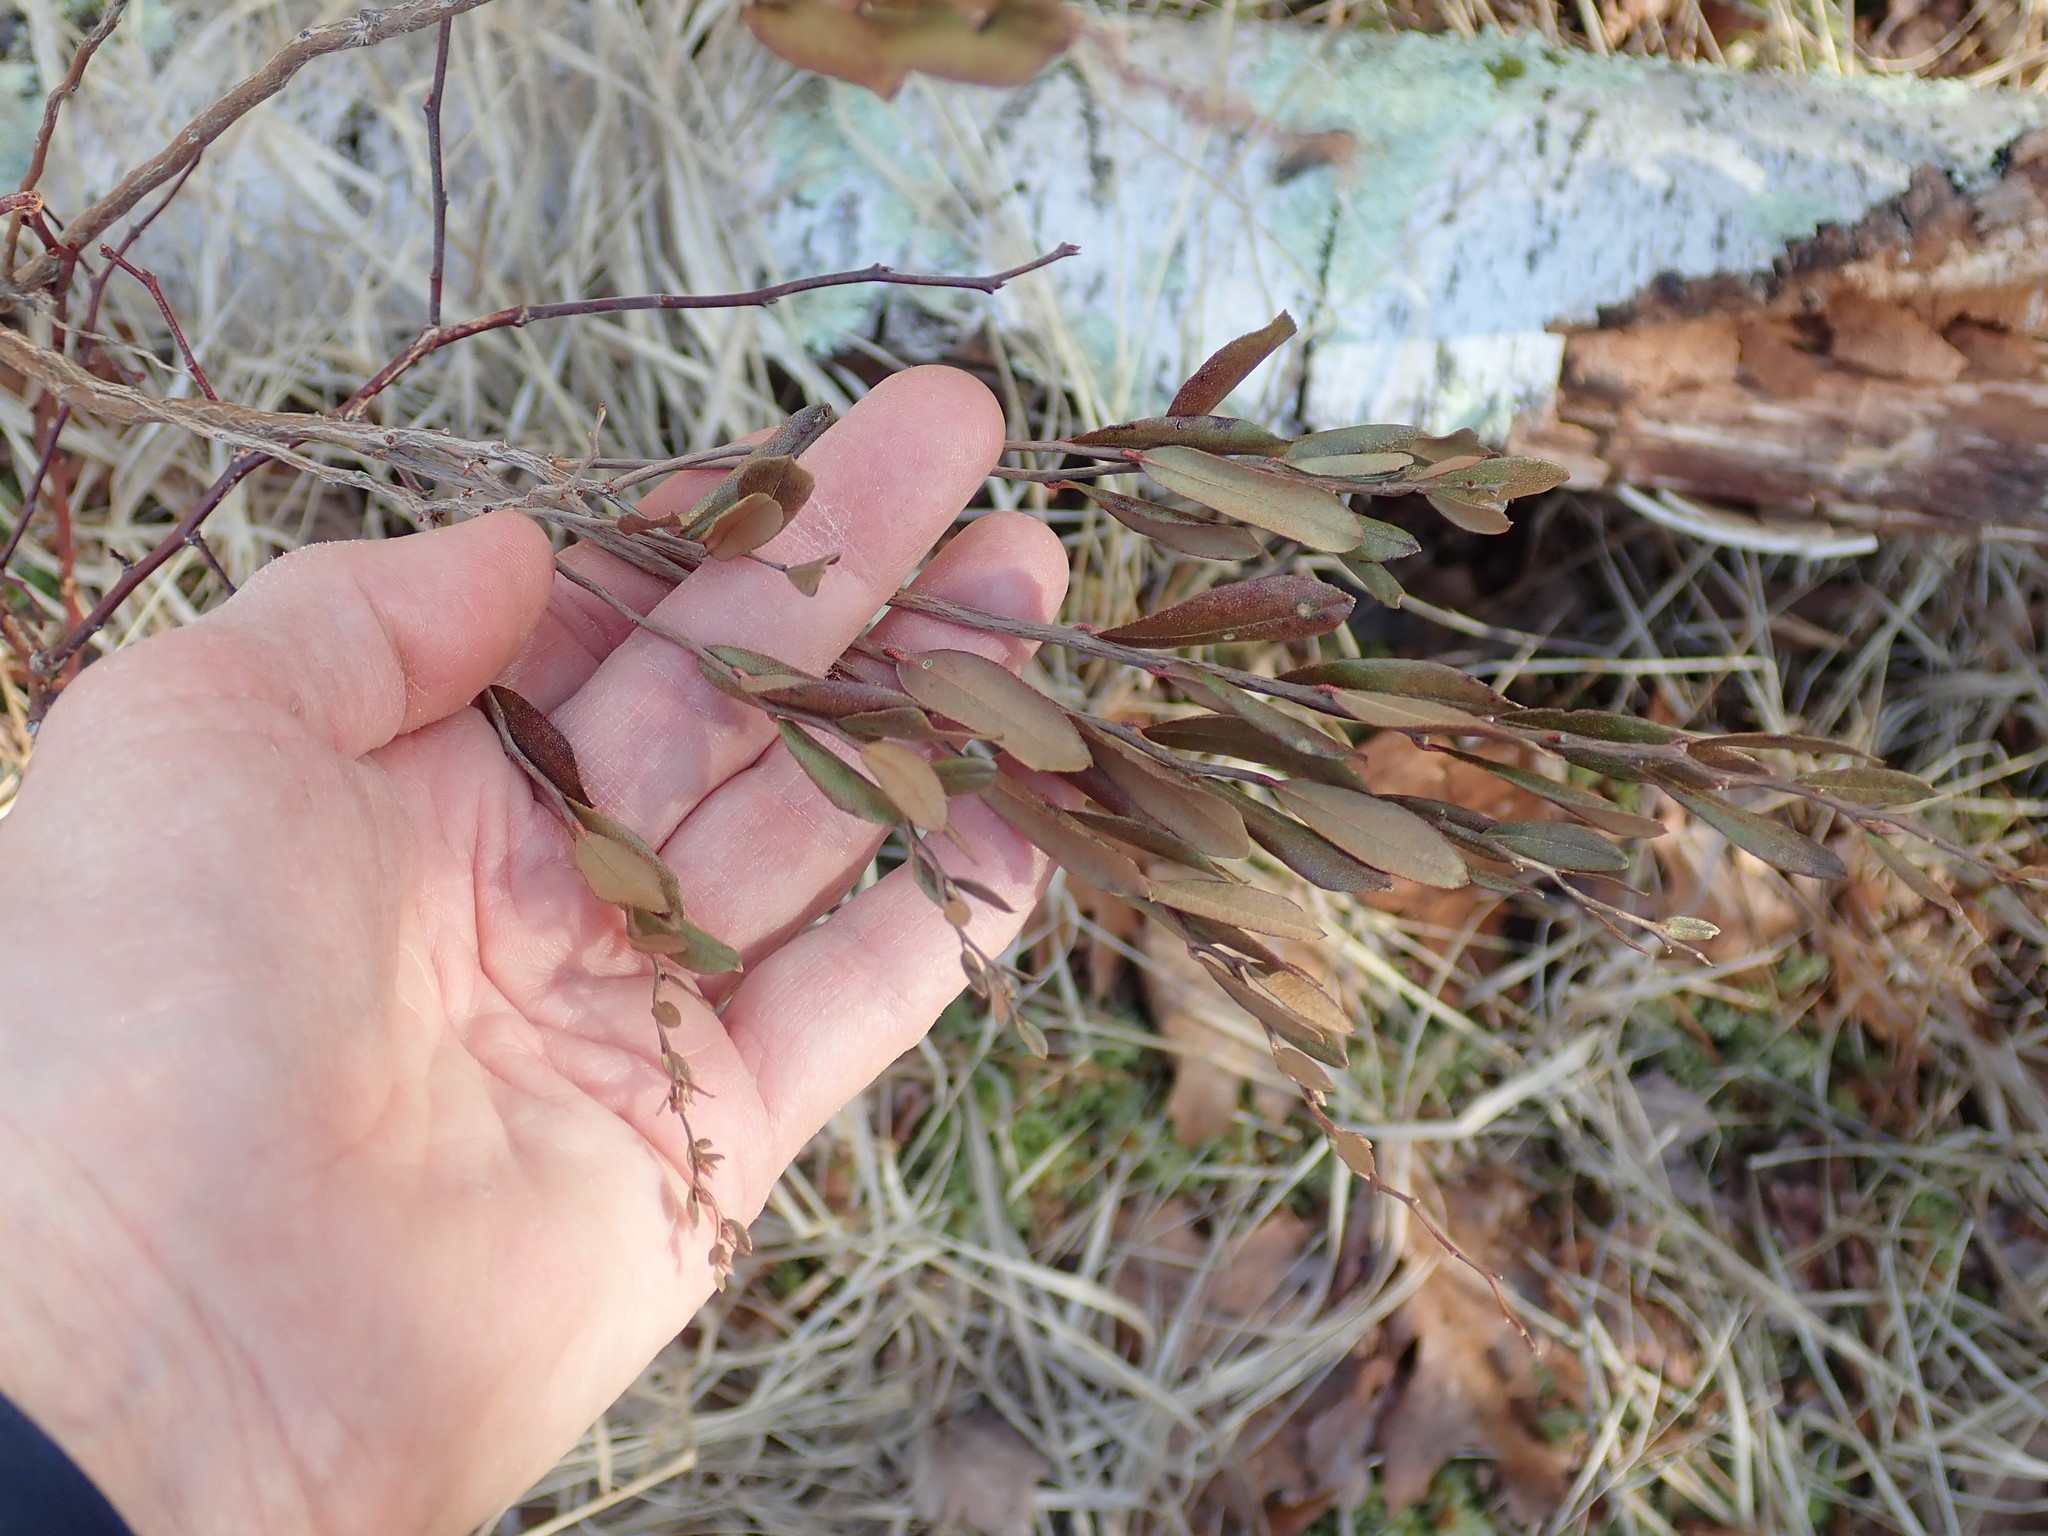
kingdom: Plantae
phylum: Tracheophyta
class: Magnoliopsida
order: Ericales
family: Ericaceae
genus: Chamaedaphne
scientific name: Chamaedaphne calyculata
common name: Leatherleaf
